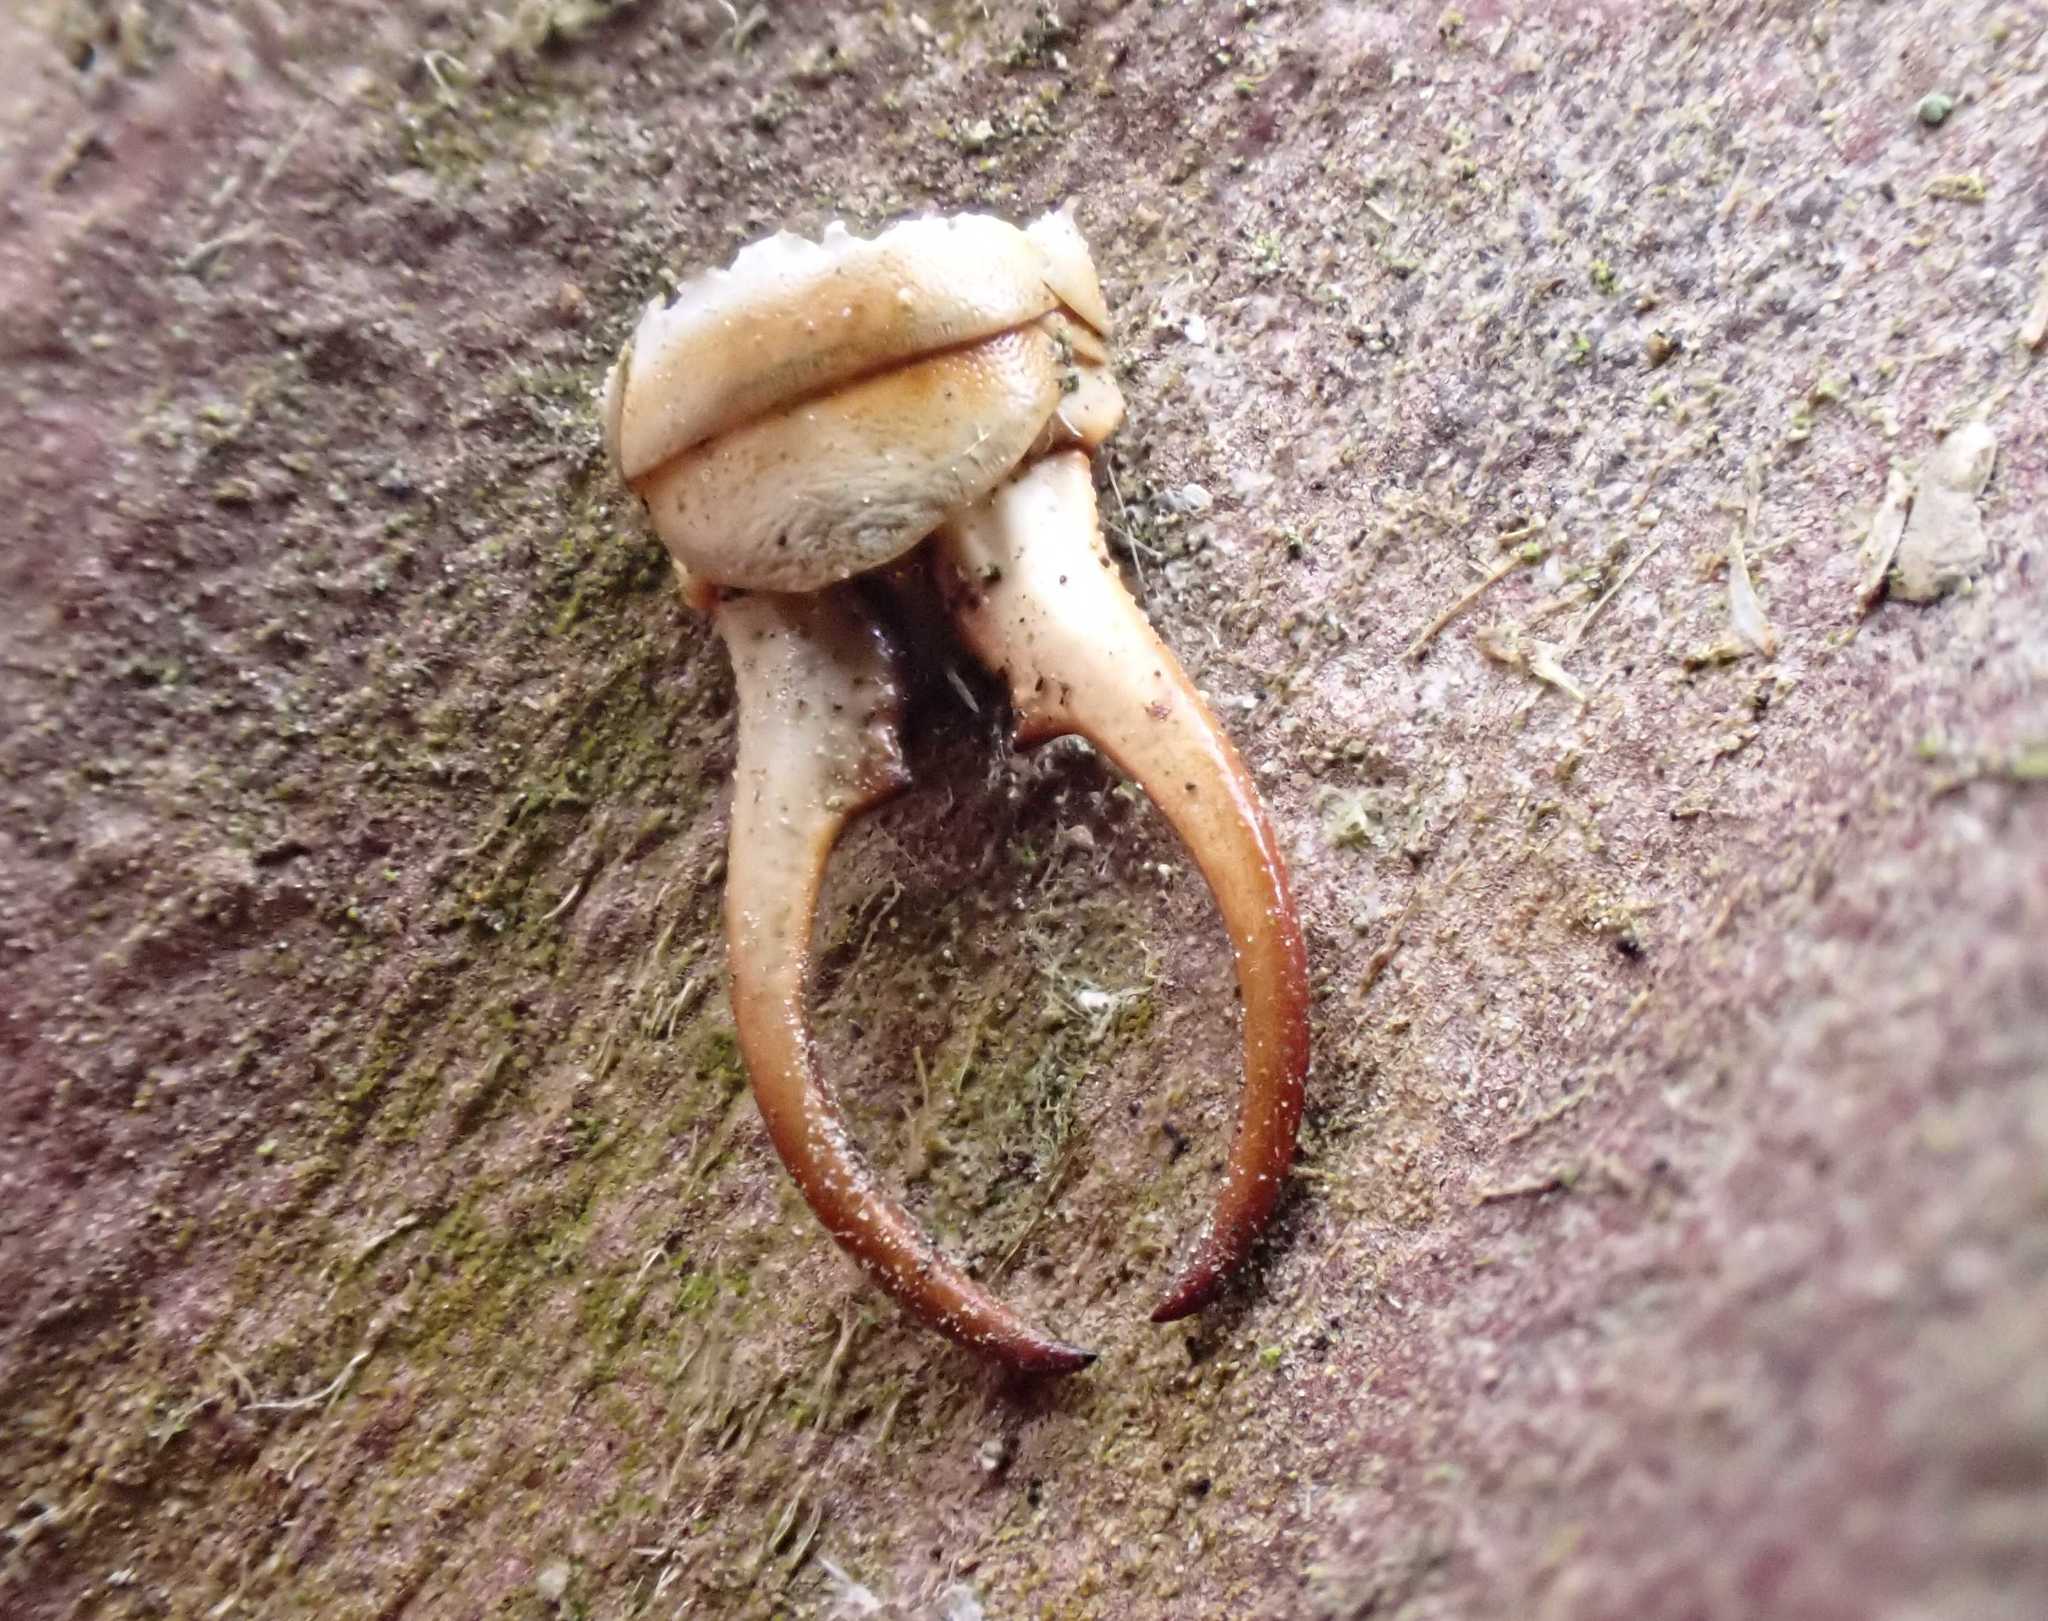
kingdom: Animalia
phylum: Arthropoda
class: Insecta
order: Dermaptera
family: Forficulidae
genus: Forficula
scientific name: Forficula
